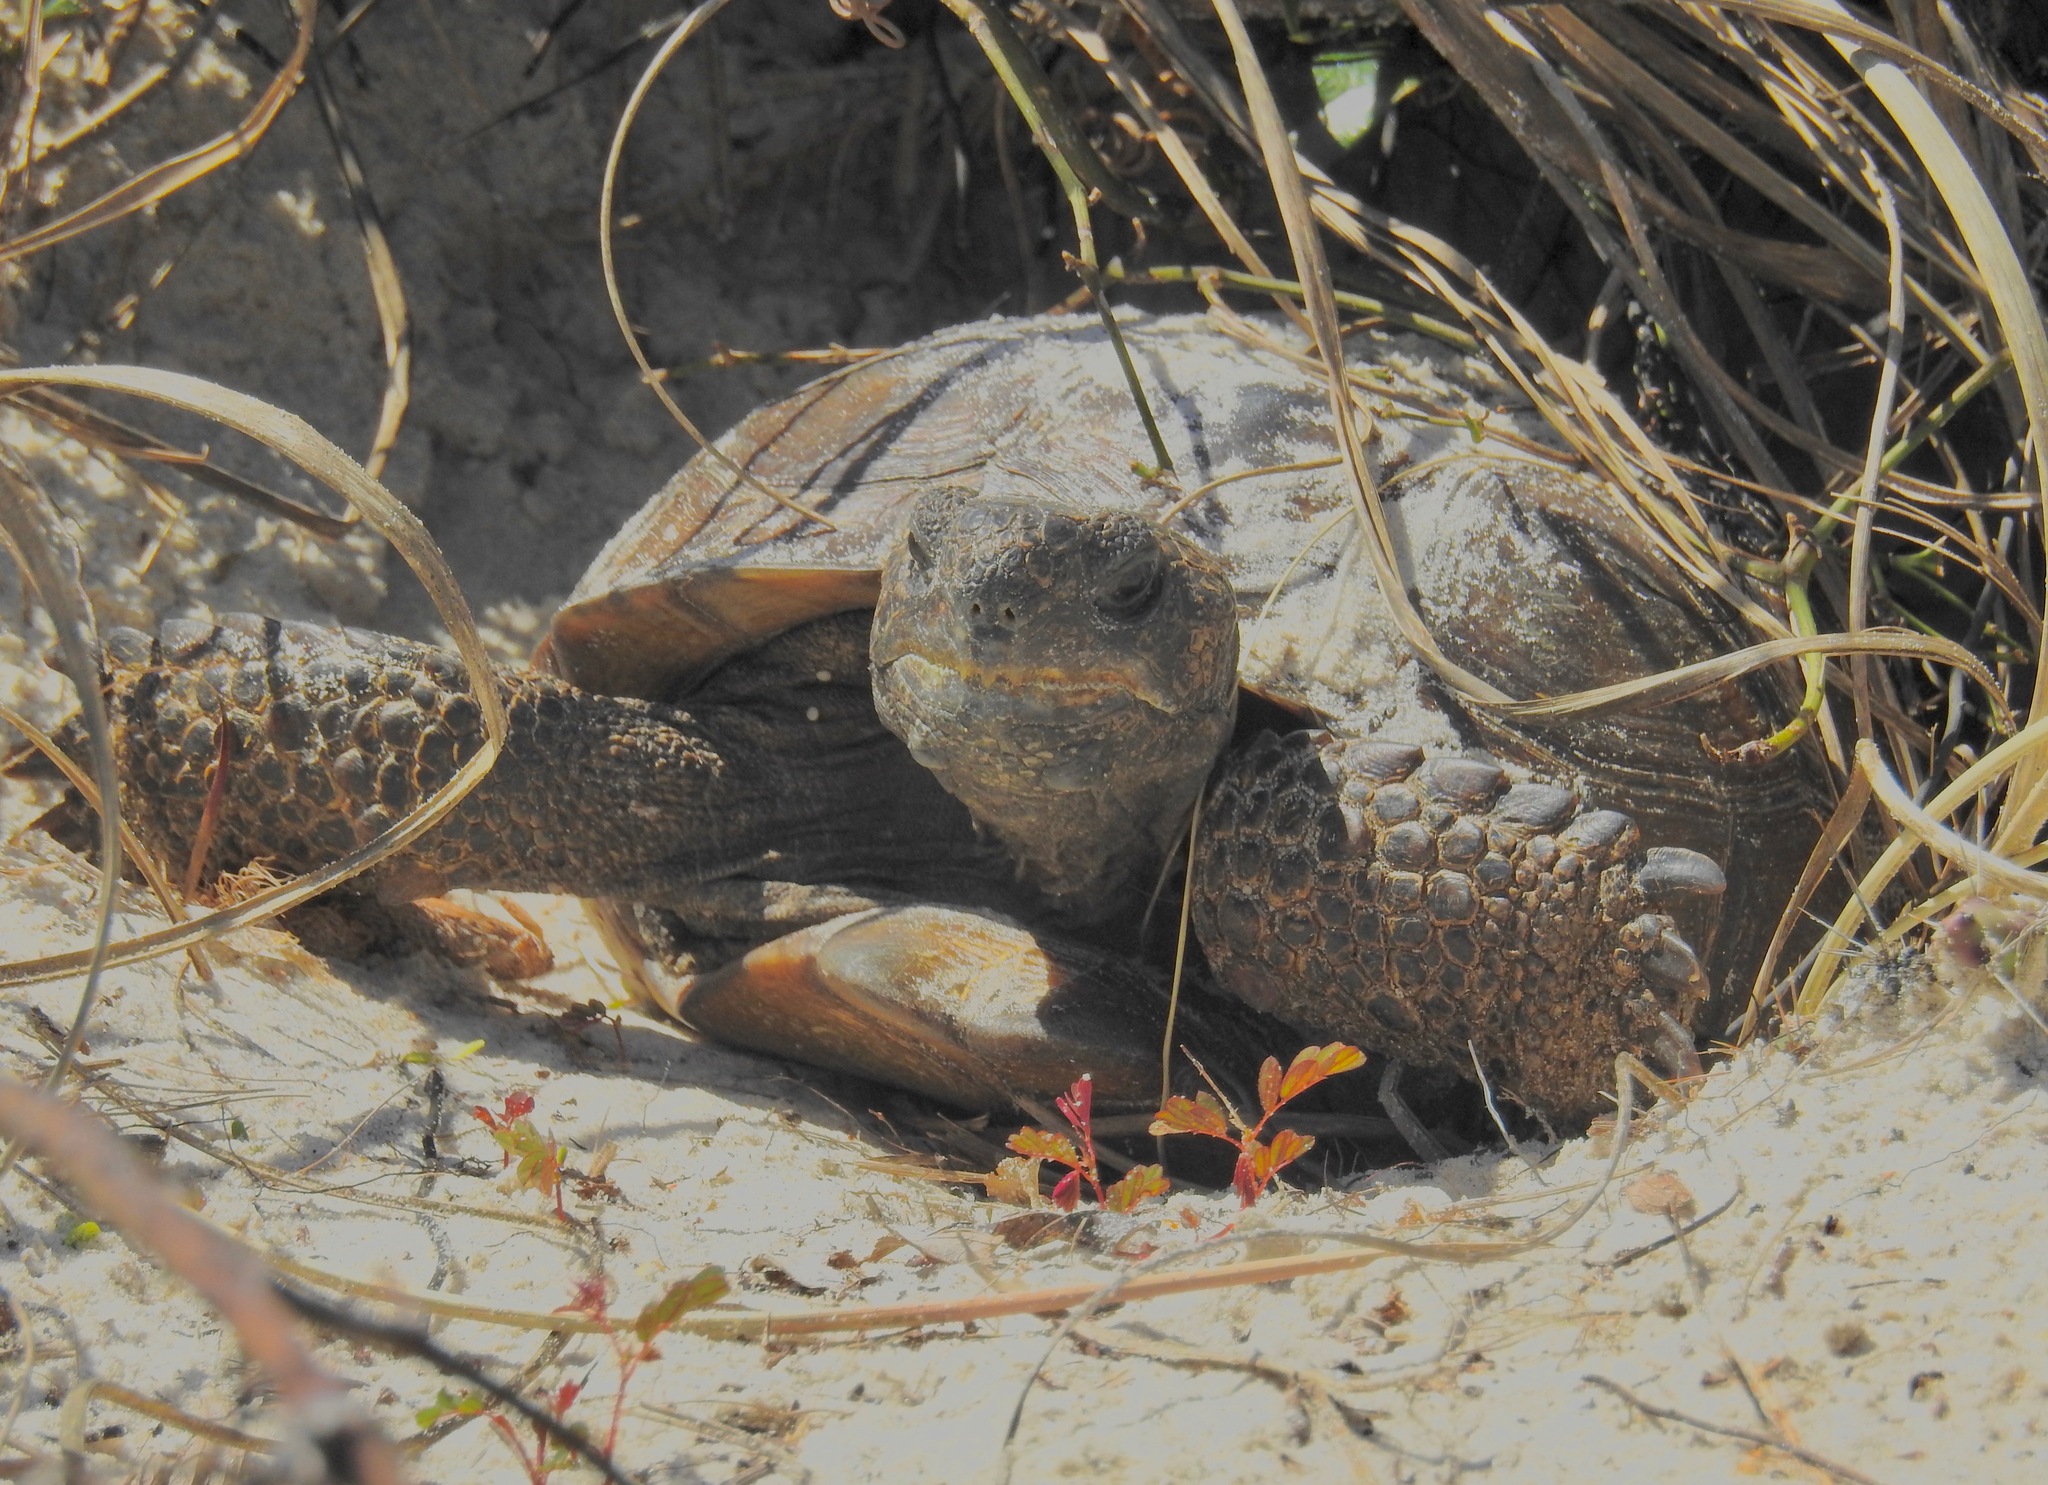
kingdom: Animalia
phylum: Chordata
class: Testudines
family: Testudinidae
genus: Gopherus
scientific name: Gopherus polyphemus
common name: Florida gopher tortoise
